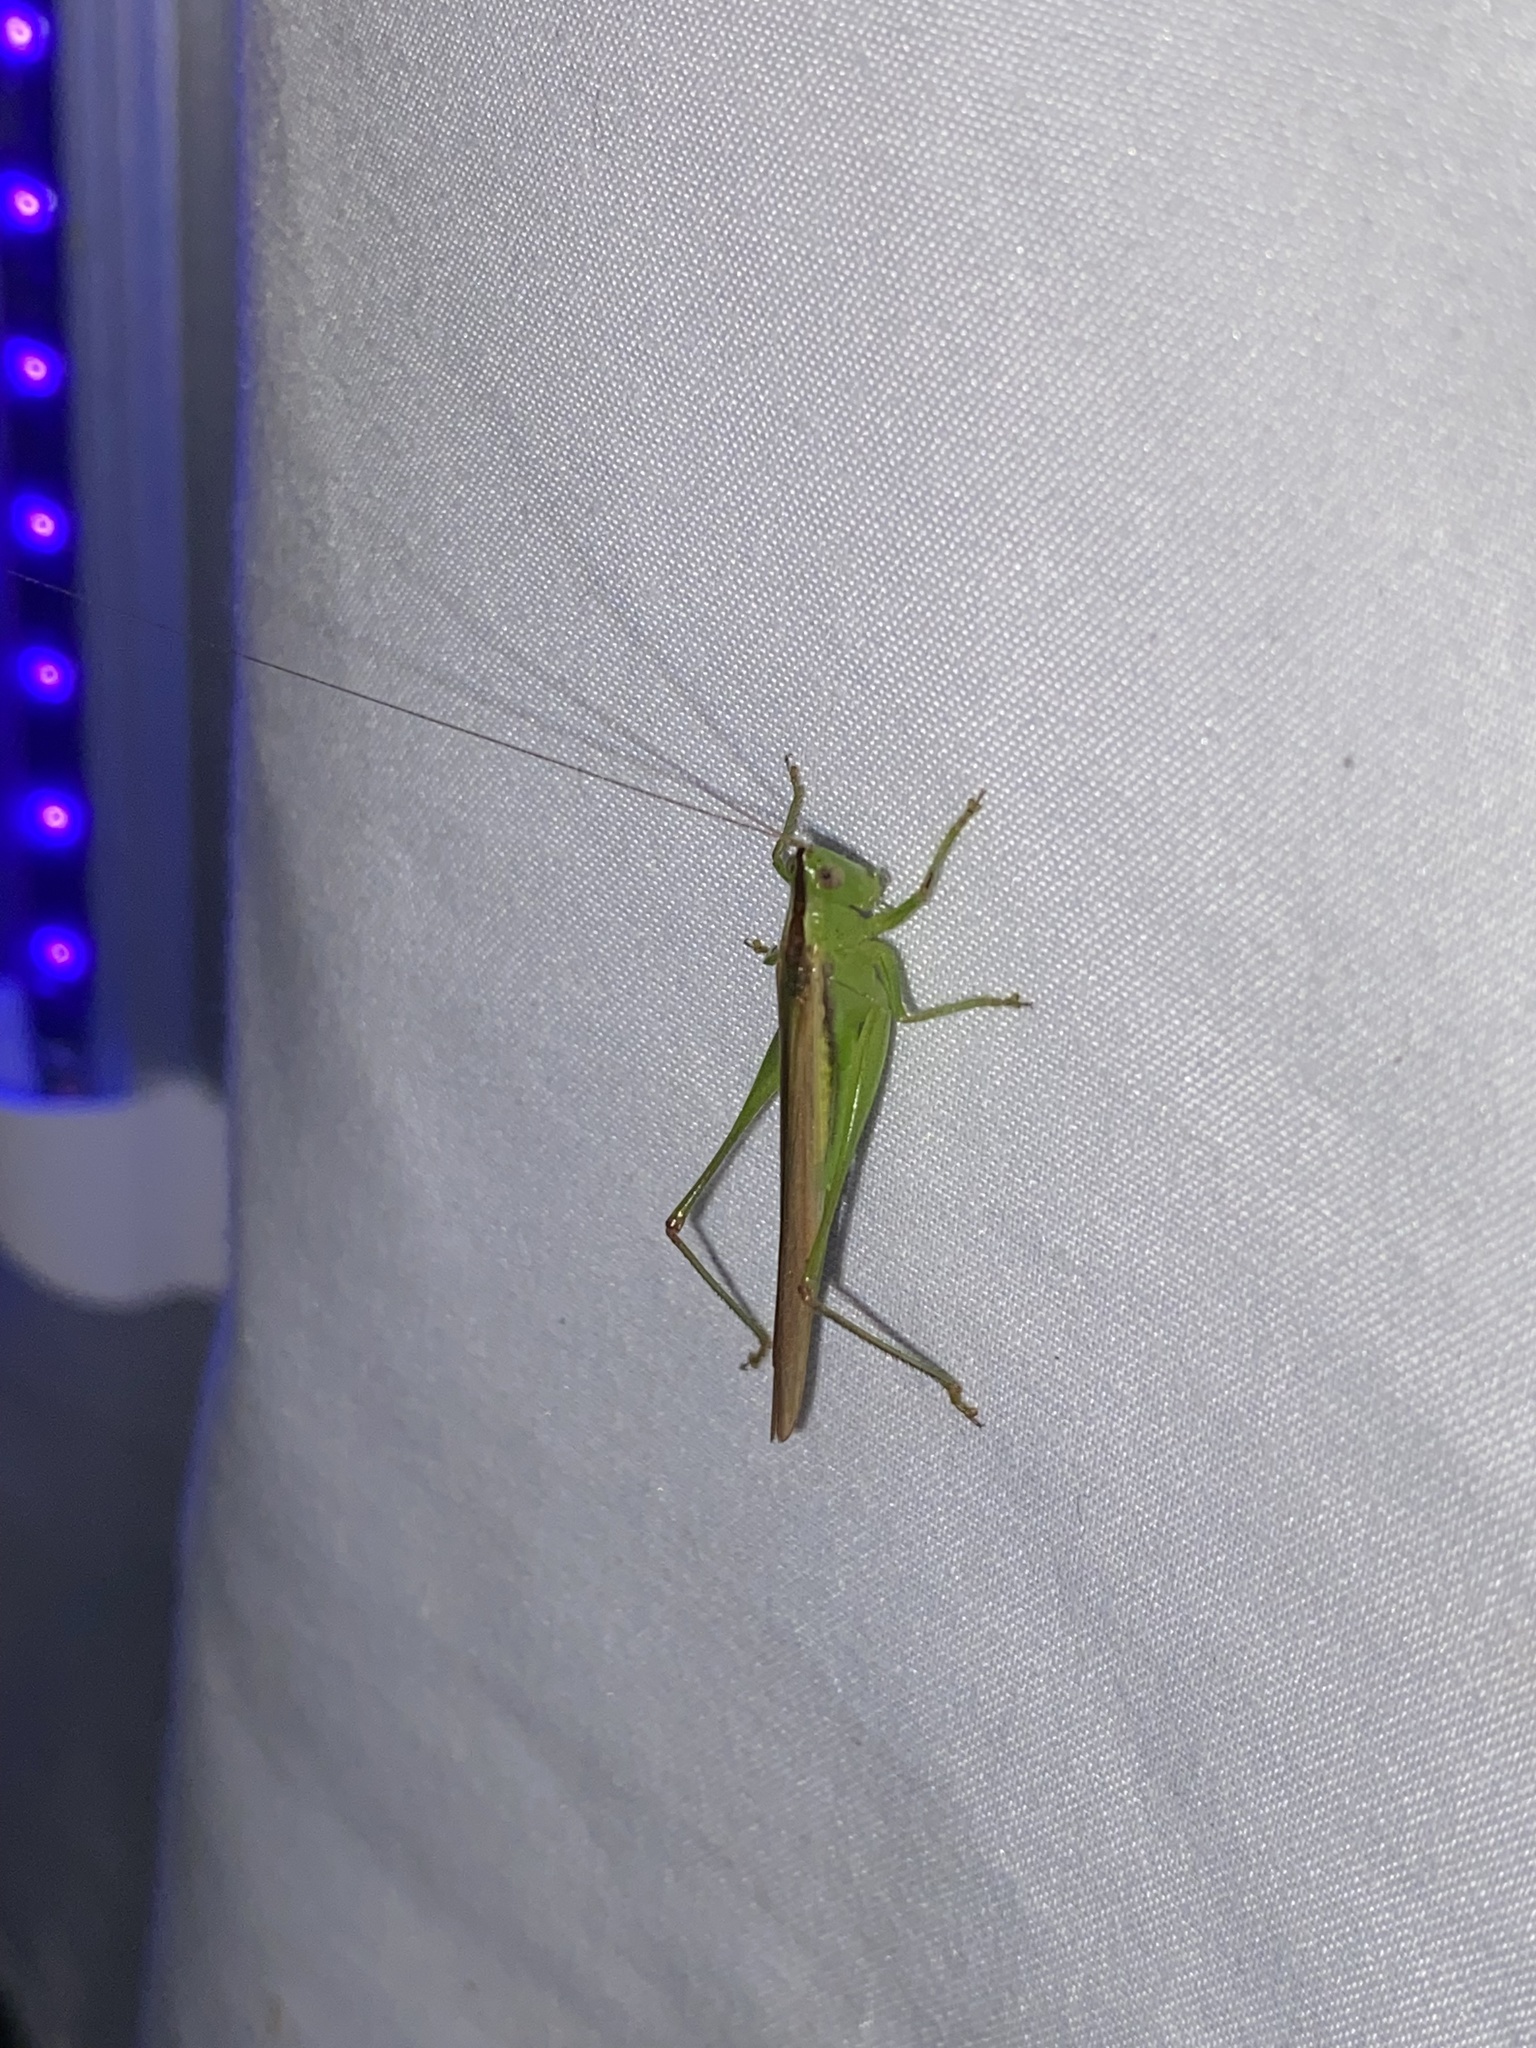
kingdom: Animalia
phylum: Arthropoda
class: Insecta
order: Orthoptera
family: Tettigoniidae
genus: Conocephalus
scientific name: Conocephalus fasciatus
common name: Slender meadow katydid
